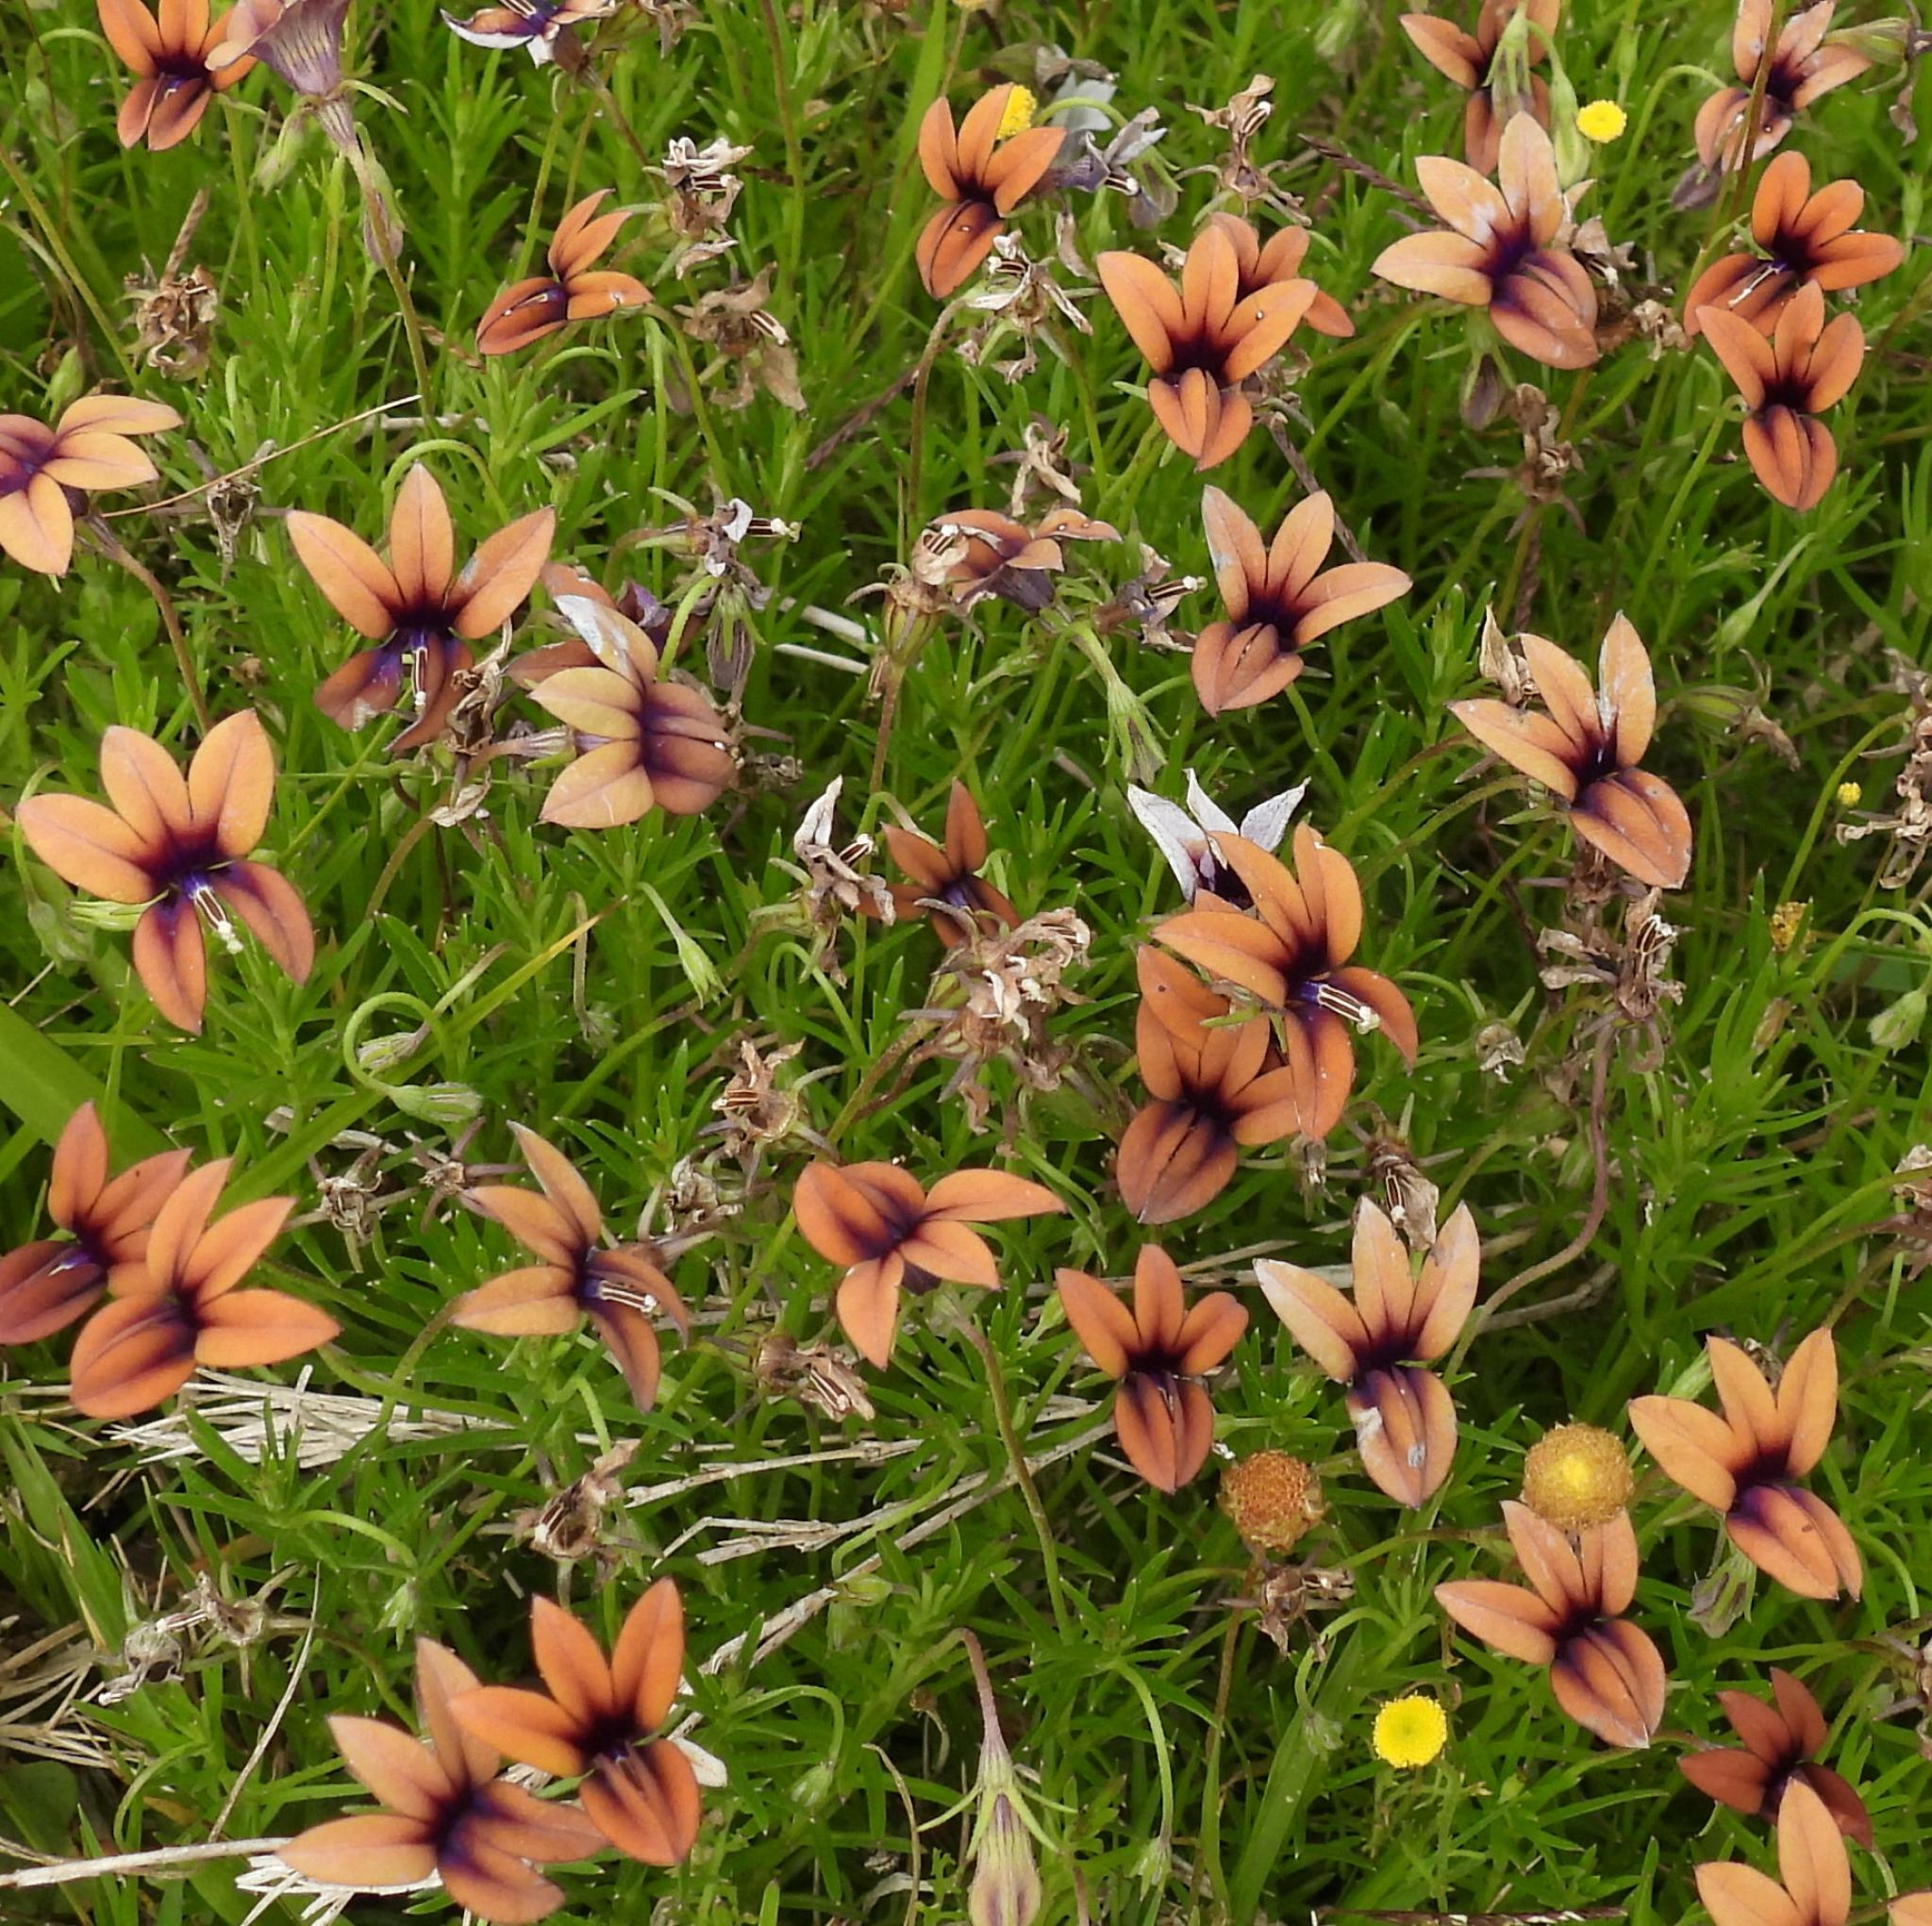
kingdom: Plantae
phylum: Tracheophyta
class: Magnoliopsida
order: Asterales
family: Campanulaceae
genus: Monopsis
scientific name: Monopsis unidentata
